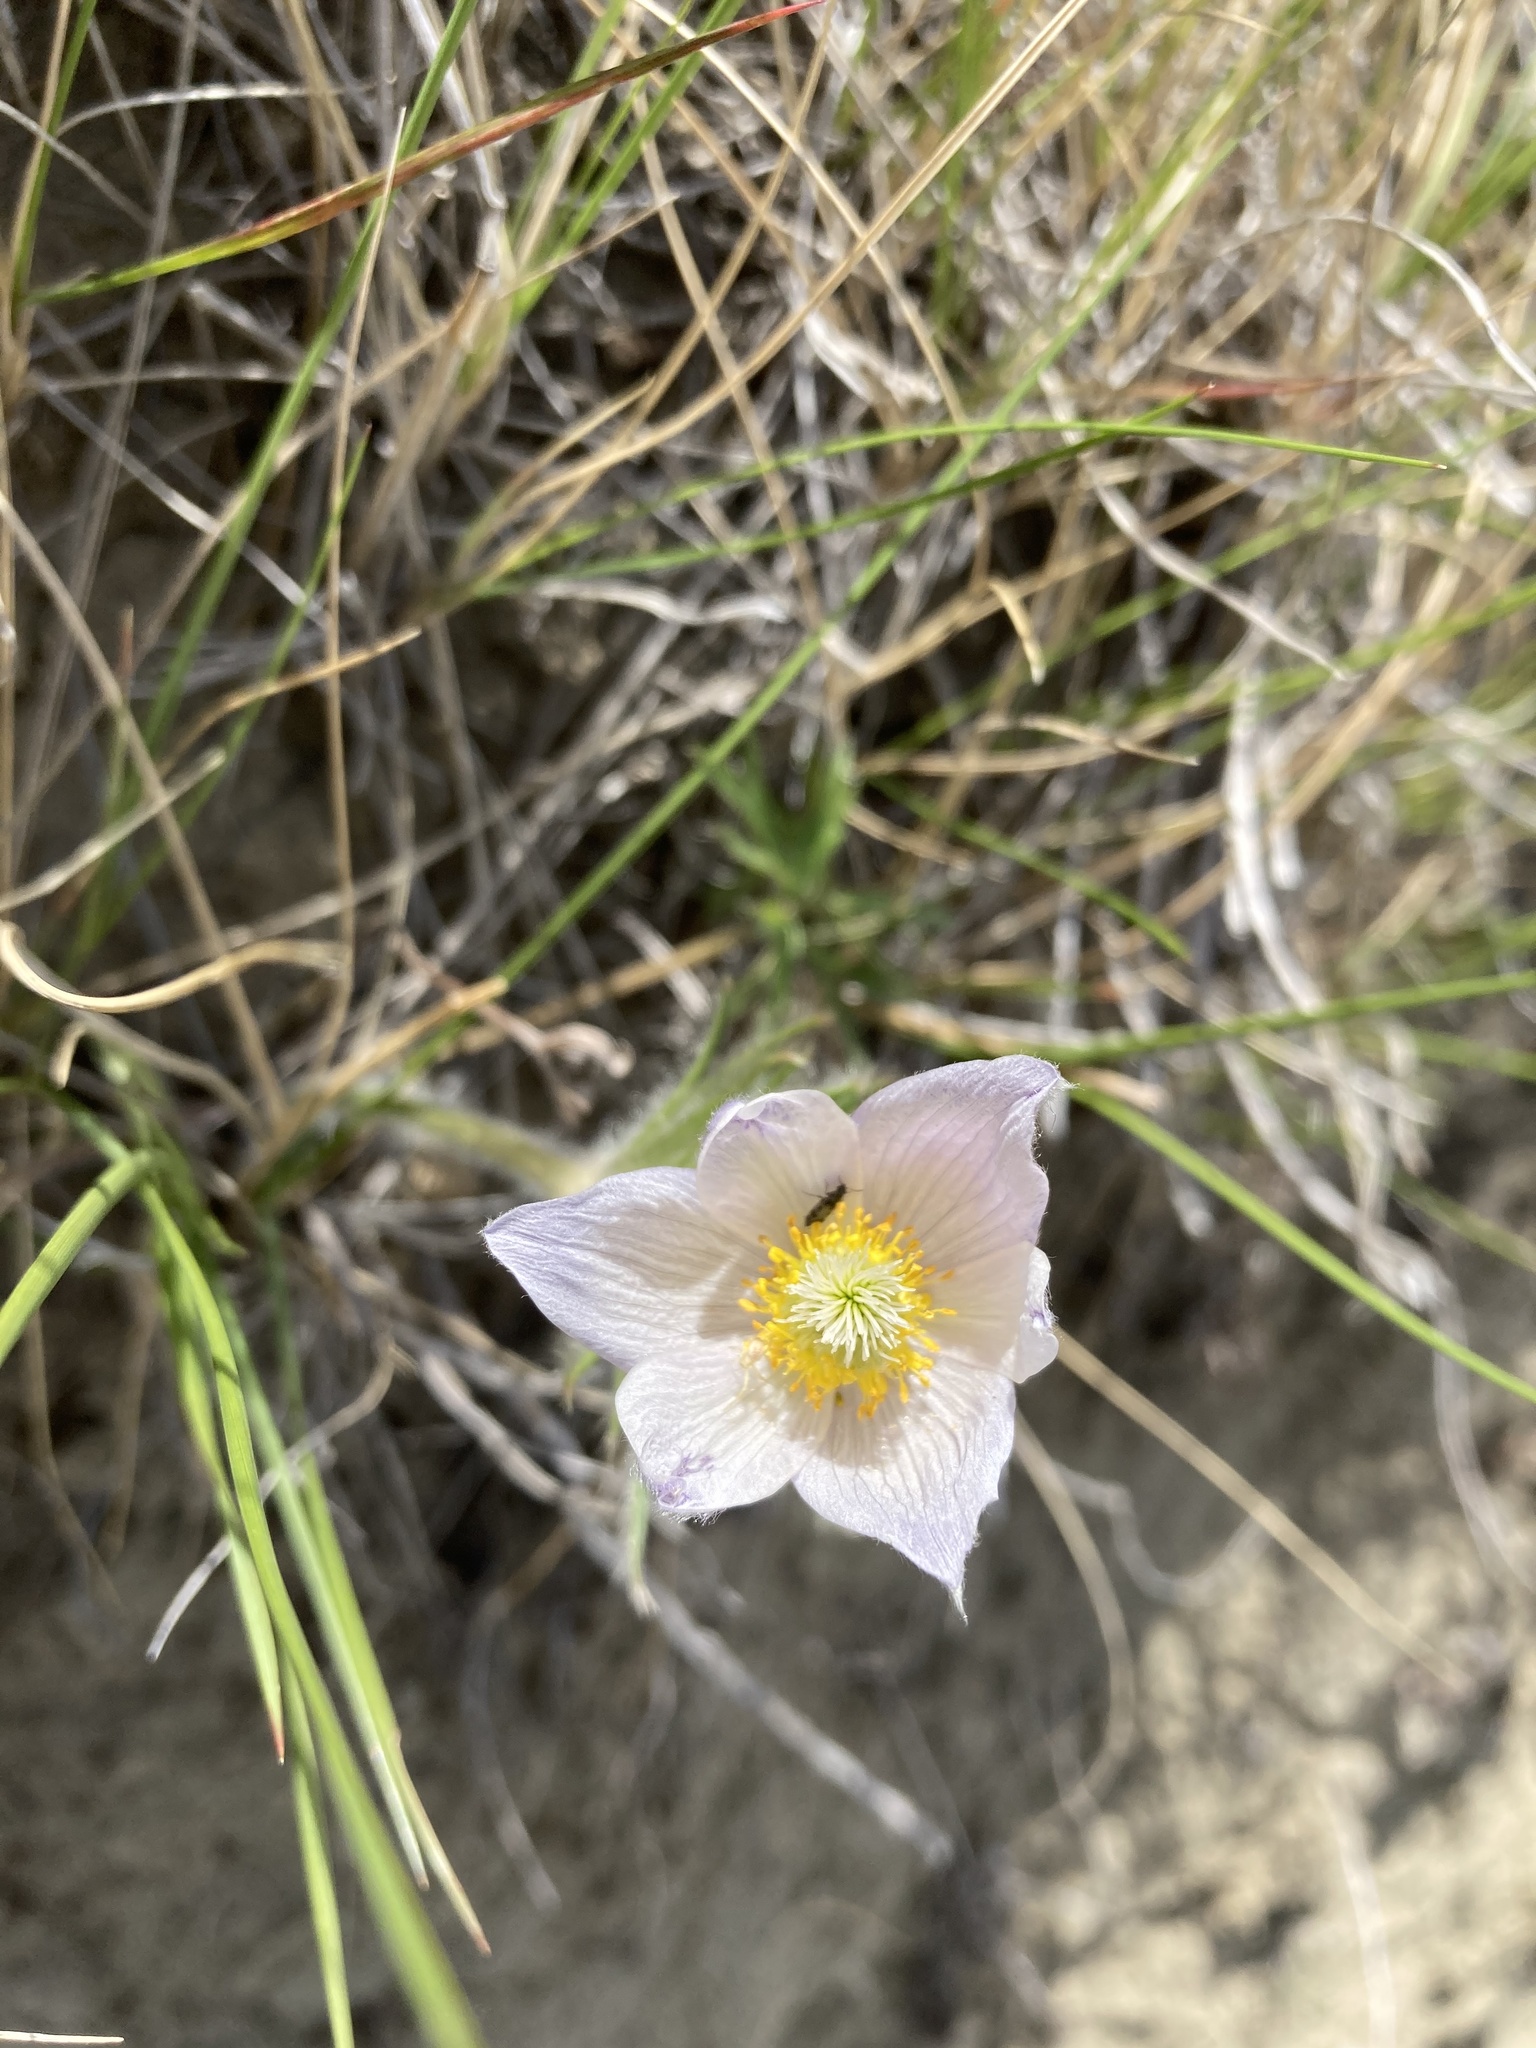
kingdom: Plantae
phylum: Tracheophyta
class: Magnoliopsida
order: Ranunculales
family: Ranunculaceae
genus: Pulsatilla
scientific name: Pulsatilla nuttalliana
